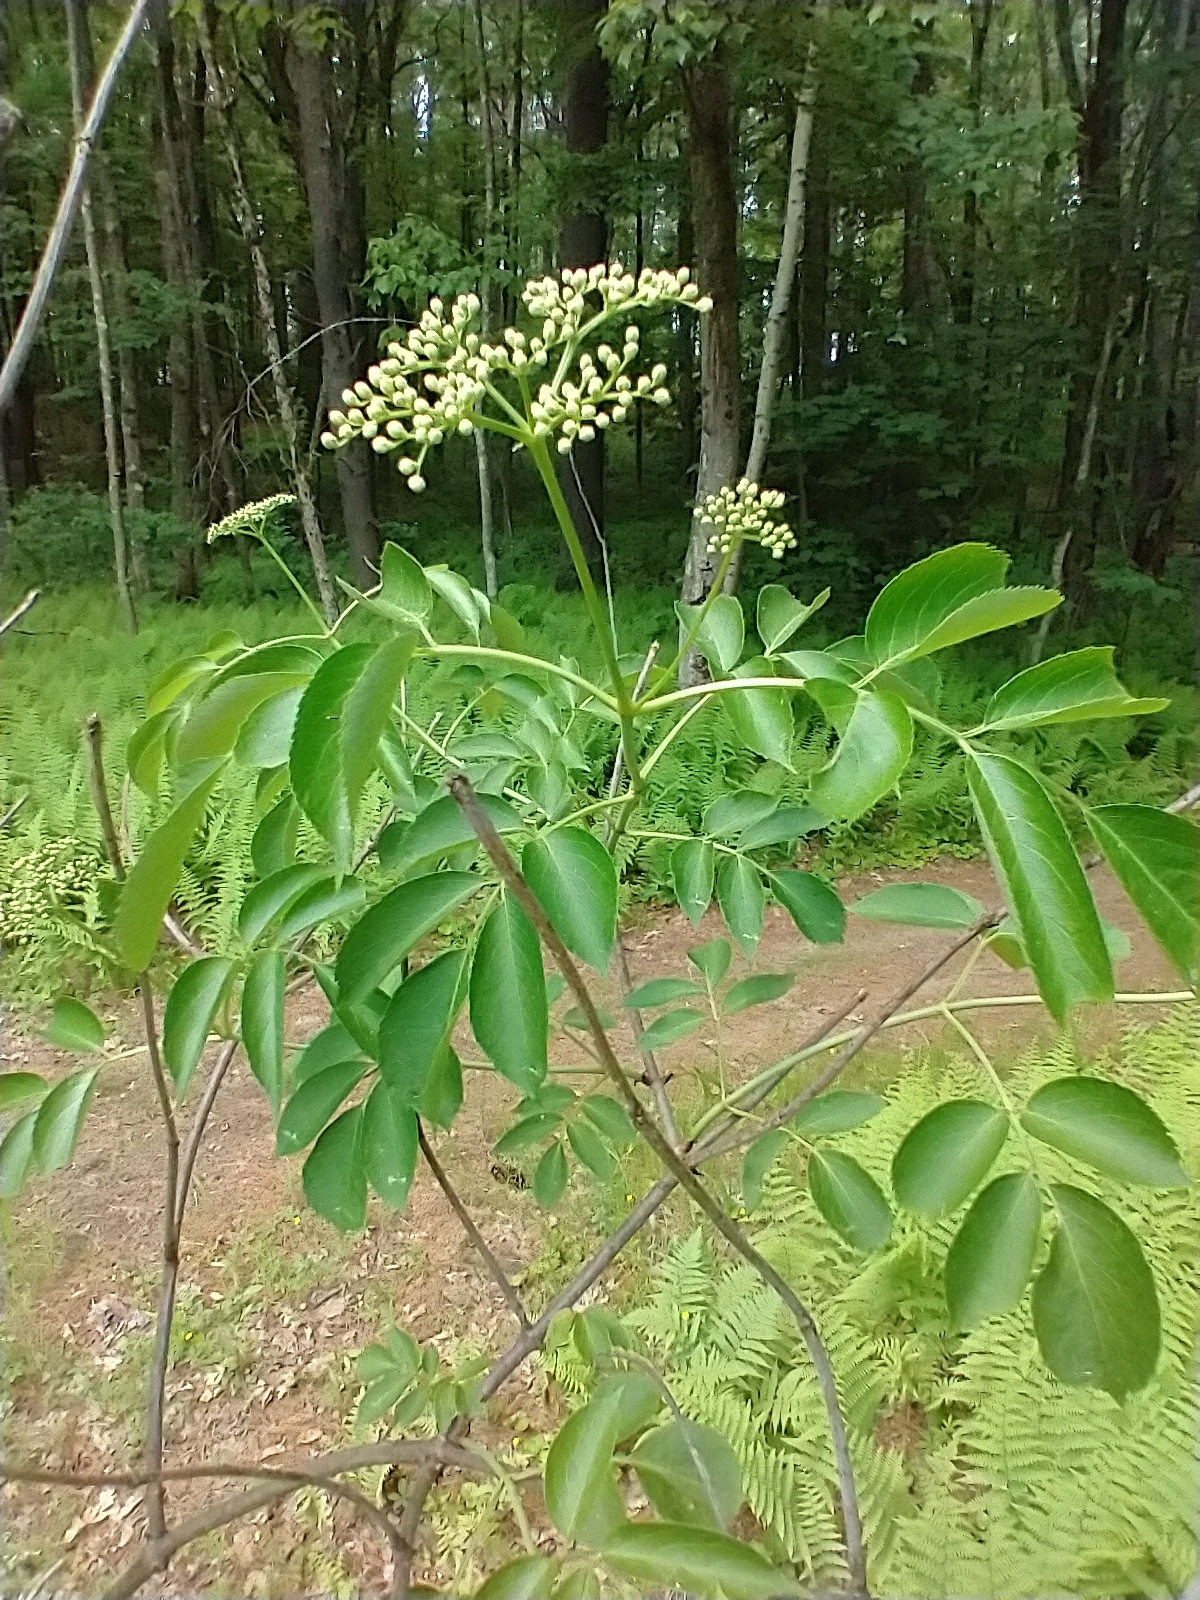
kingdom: Plantae
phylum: Tracheophyta
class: Magnoliopsida
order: Dipsacales
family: Viburnaceae
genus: Sambucus
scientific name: Sambucus canadensis
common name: American elder
